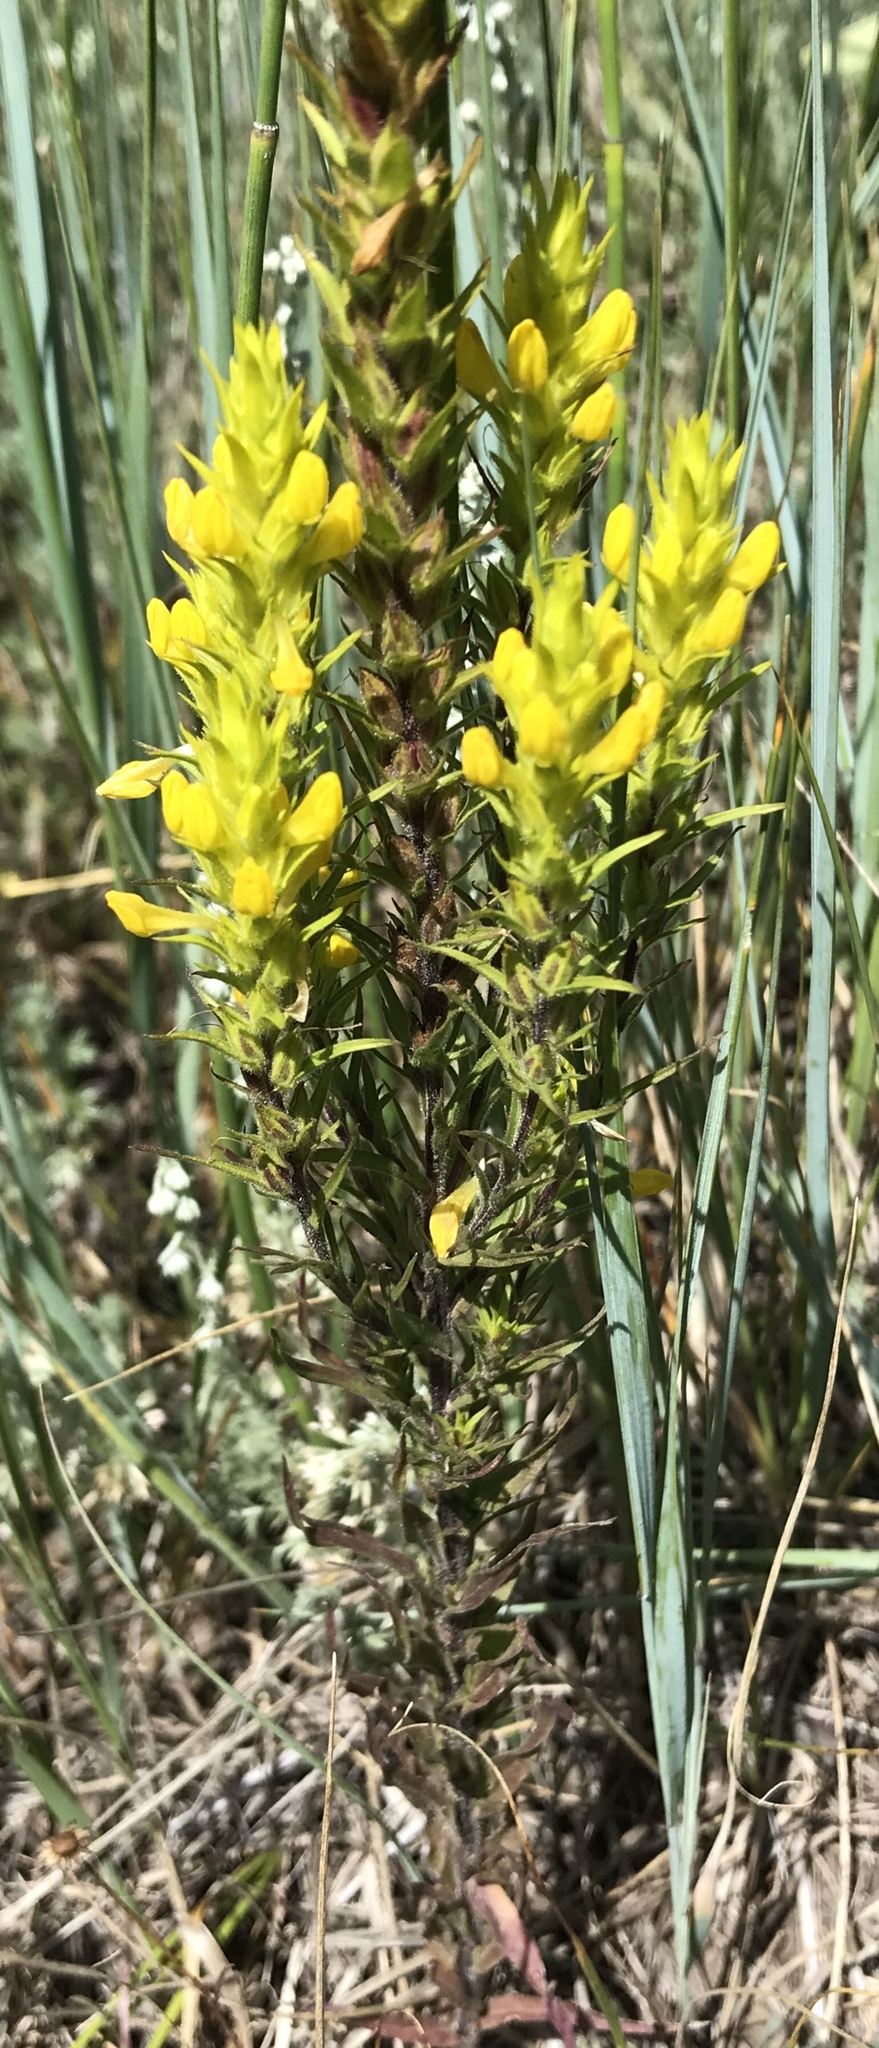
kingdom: Plantae
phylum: Tracheophyta
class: Magnoliopsida
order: Lamiales
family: Orobanchaceae
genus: Orthocarpus
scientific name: Orthocarpus luteus
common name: Golden-tongue owl's-clover
